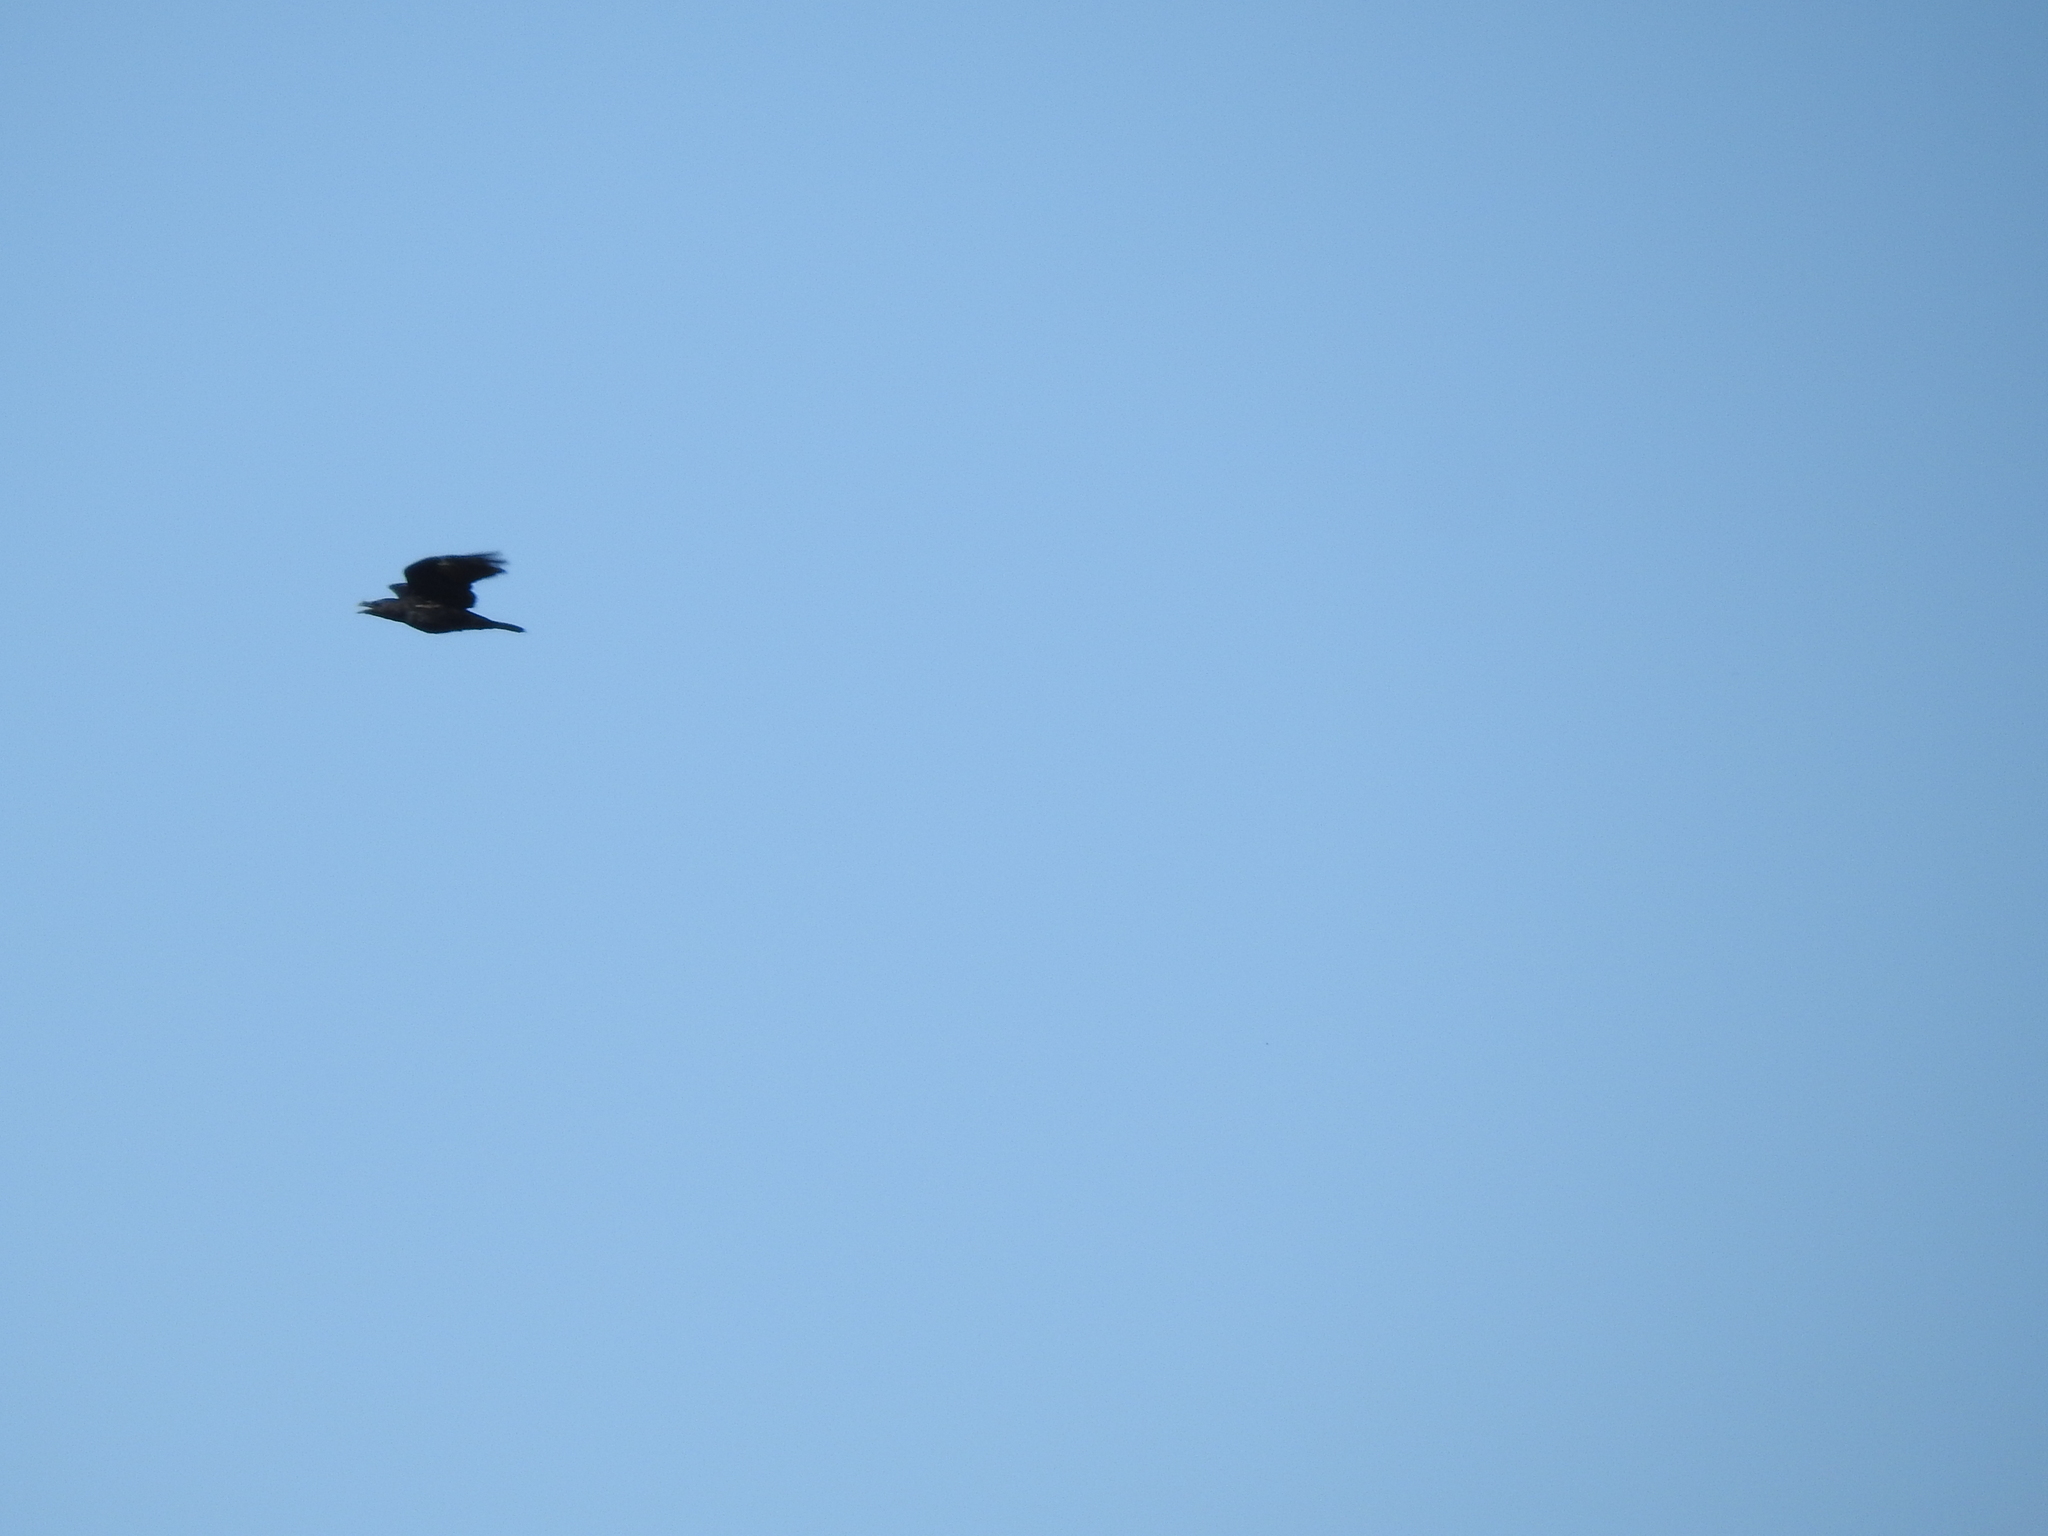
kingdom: Animalia
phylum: Chordata
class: Aves
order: Passeriformes
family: Corvidae
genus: Corvus
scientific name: Corvus corax
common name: Common raven
